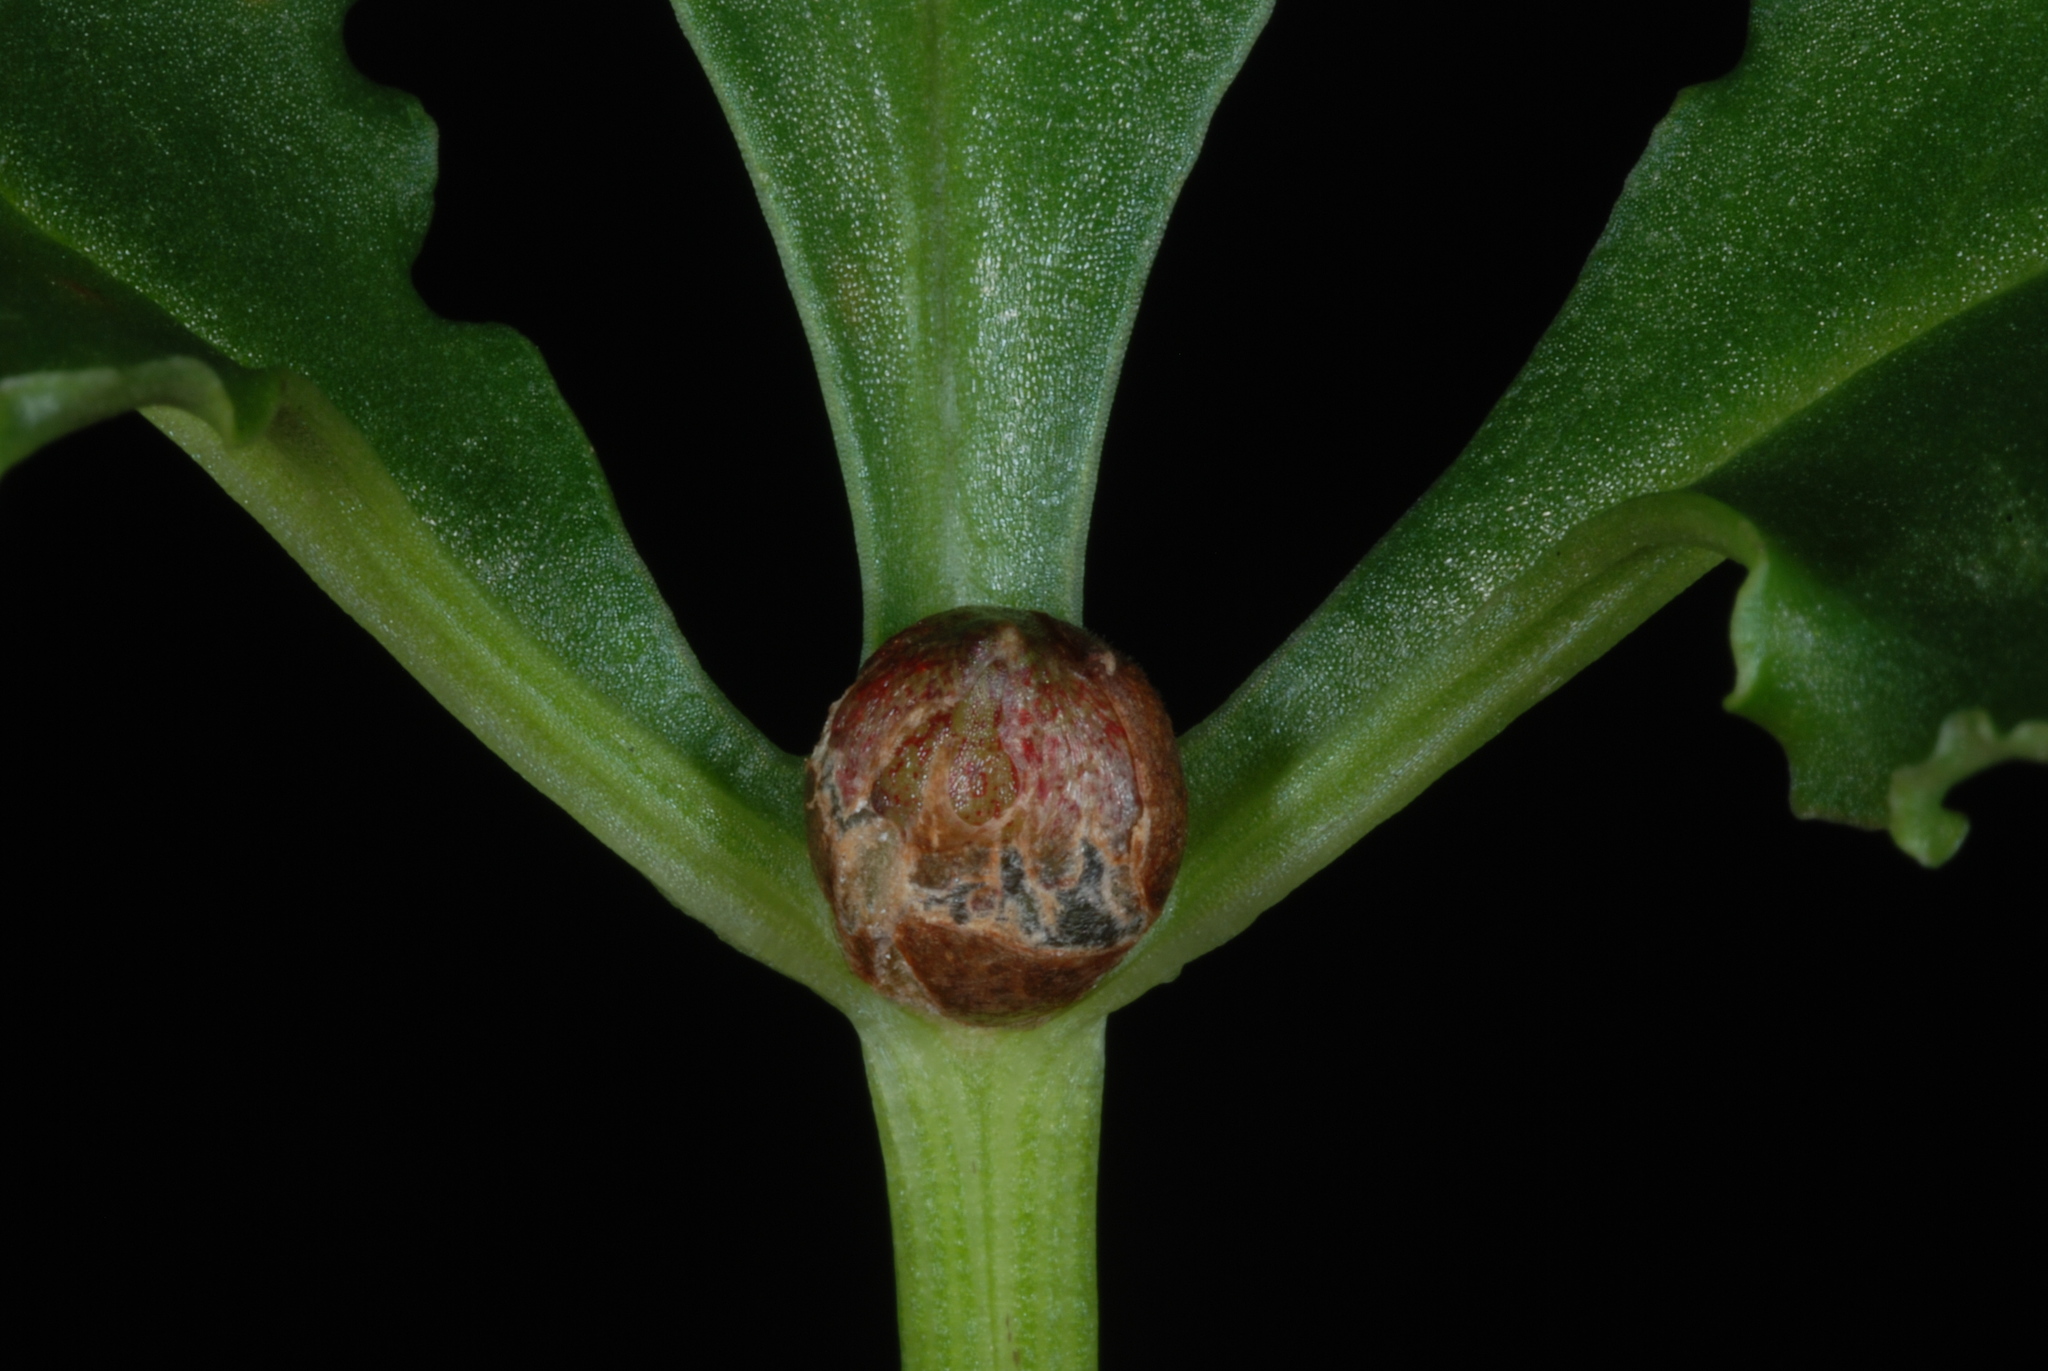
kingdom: Plantae
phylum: Tracheophyta
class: Liliopsida
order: Alismatales
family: Araceae
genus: Pinellia
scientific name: Pinellia ternata
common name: Pinellia
